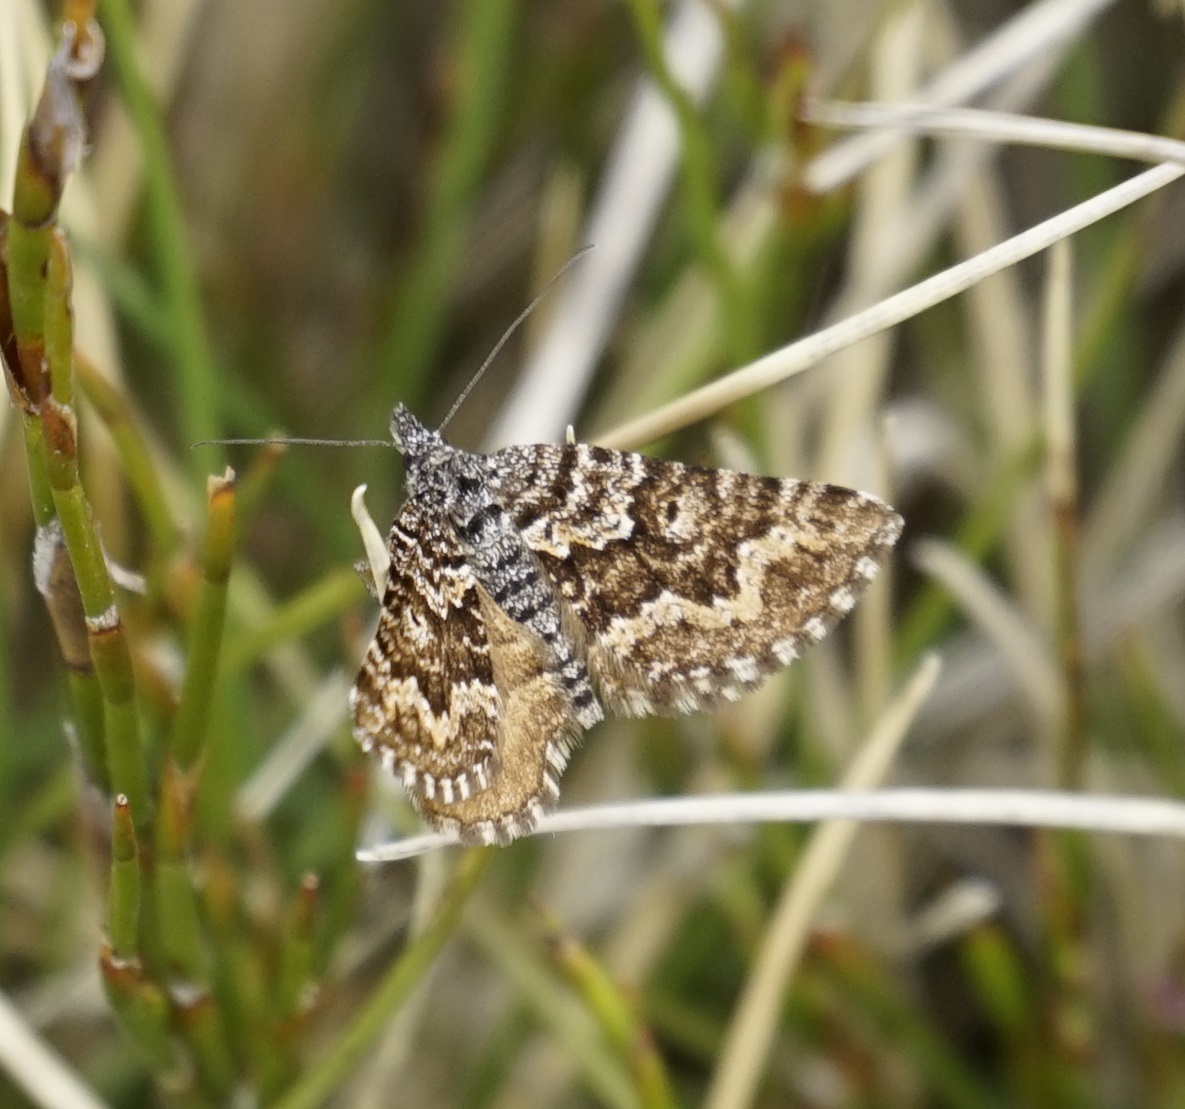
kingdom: Animalia
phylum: Arthropoda
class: Insecta
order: Lepidoptera
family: Geometridae
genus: Chrysolarentia
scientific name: Chrysolarentia phaeoxutha
